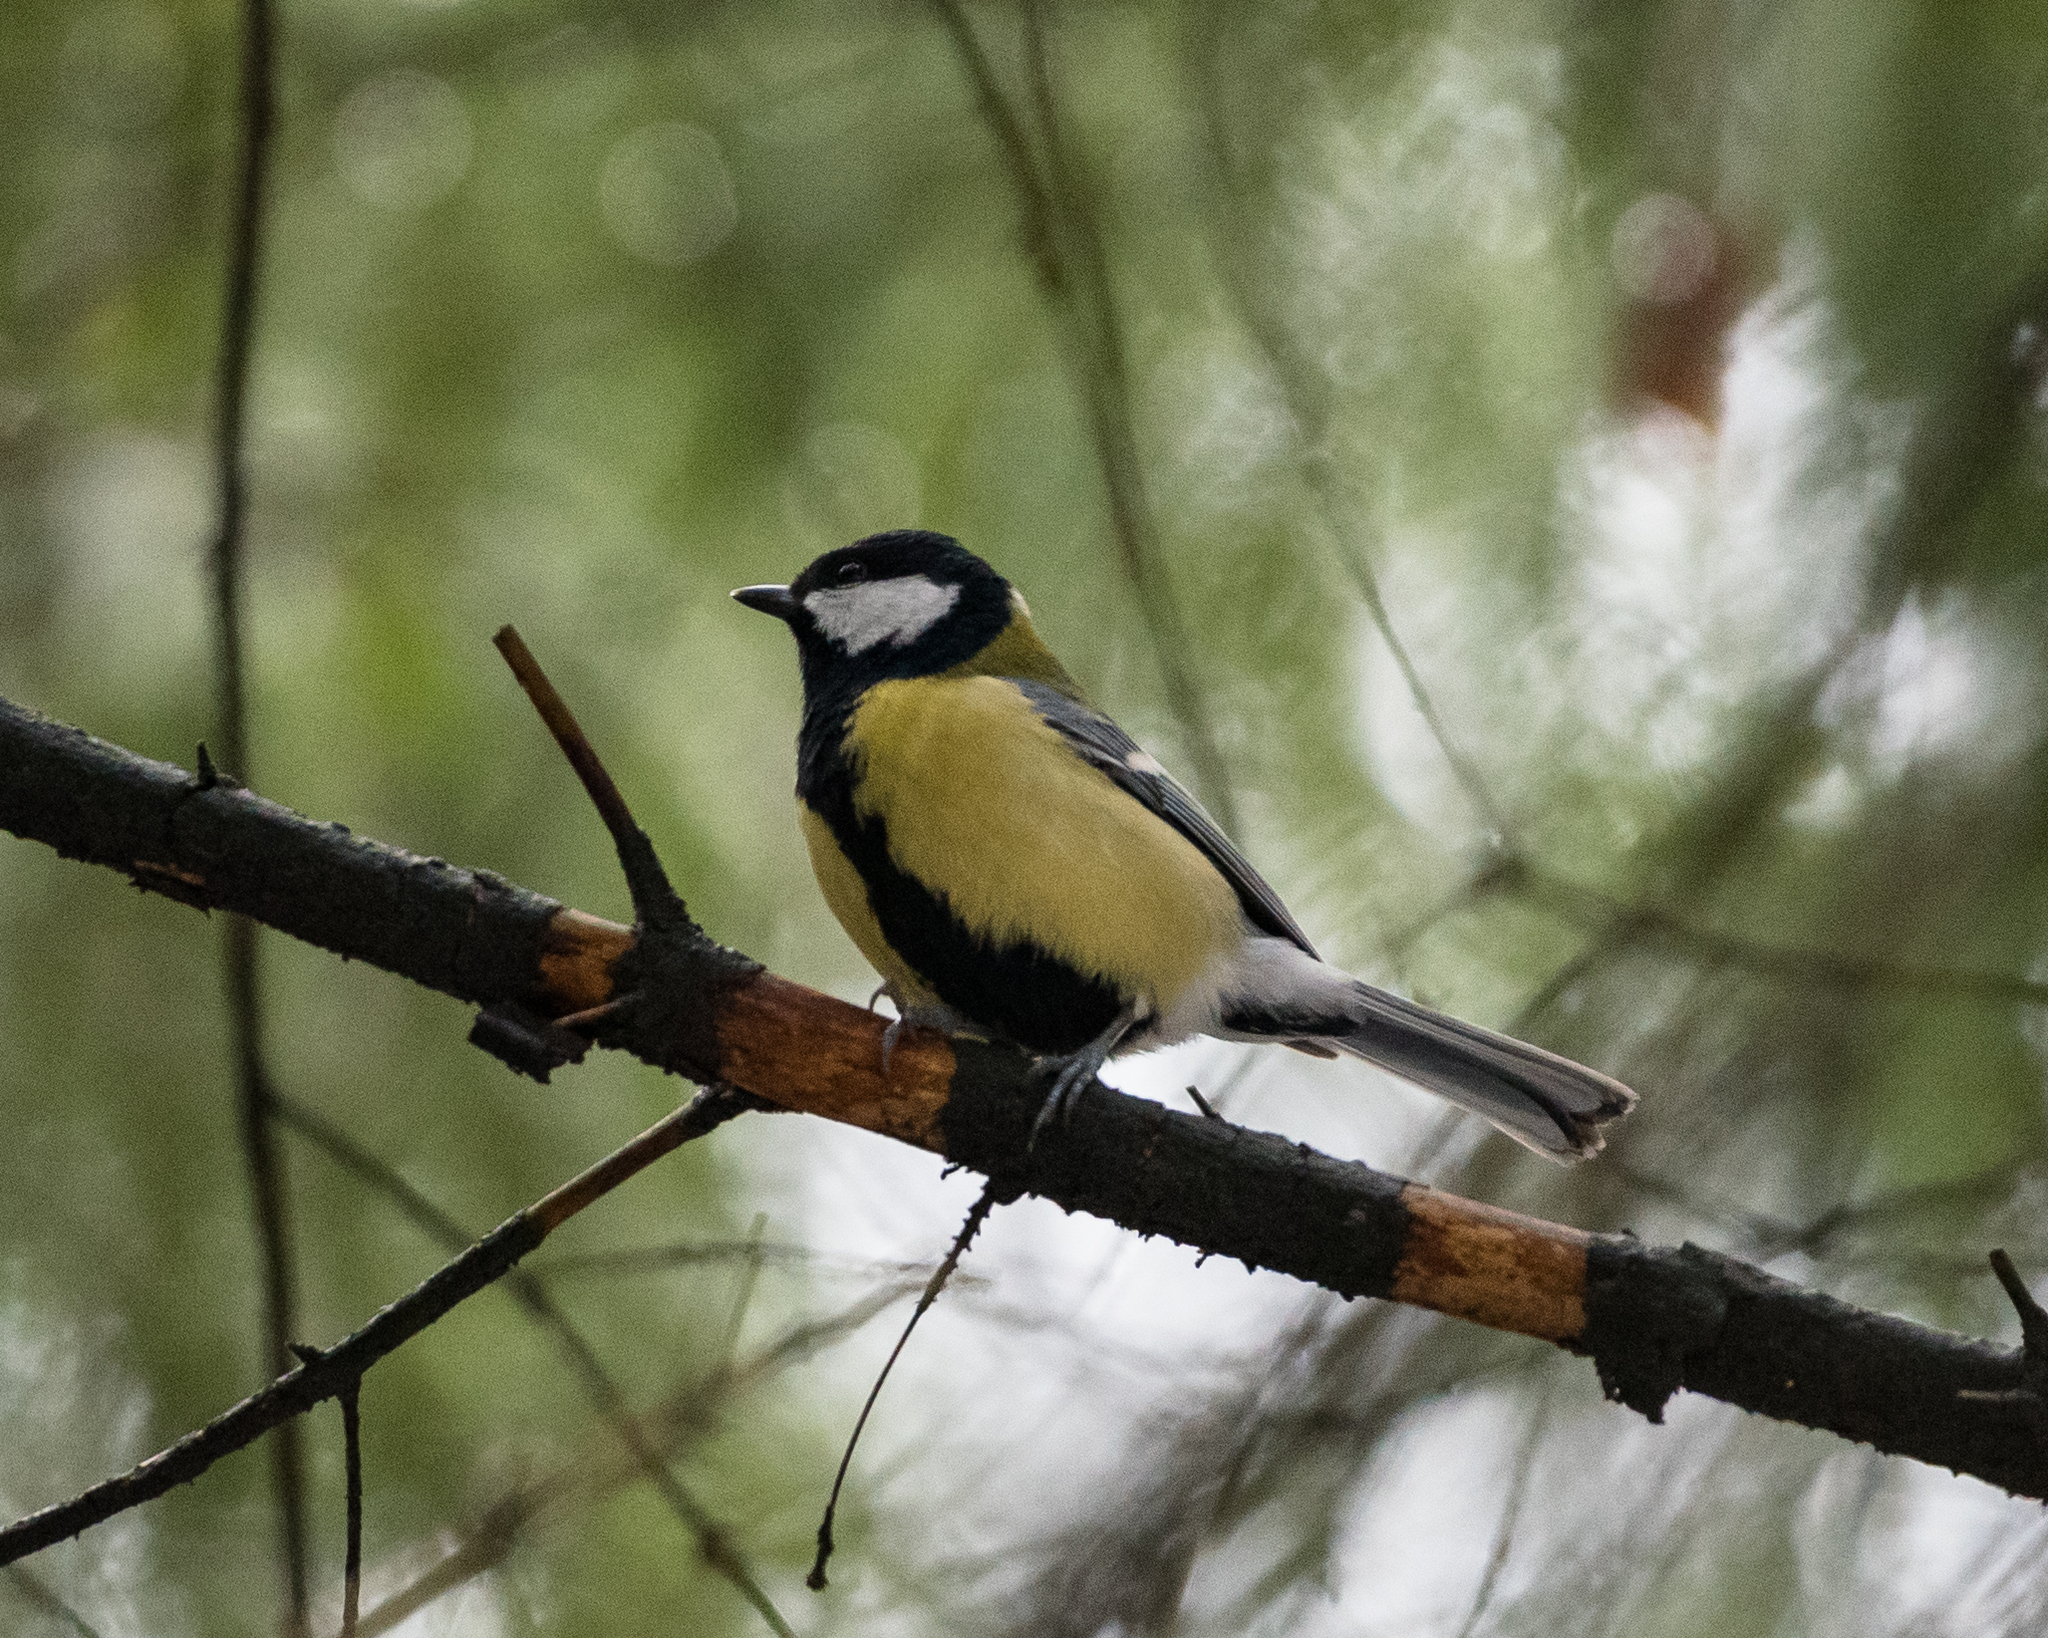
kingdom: Animalia
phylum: Chordata
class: Aves
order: Passeriformes
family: Paridae
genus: Parus
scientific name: Parus major
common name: Great tit
